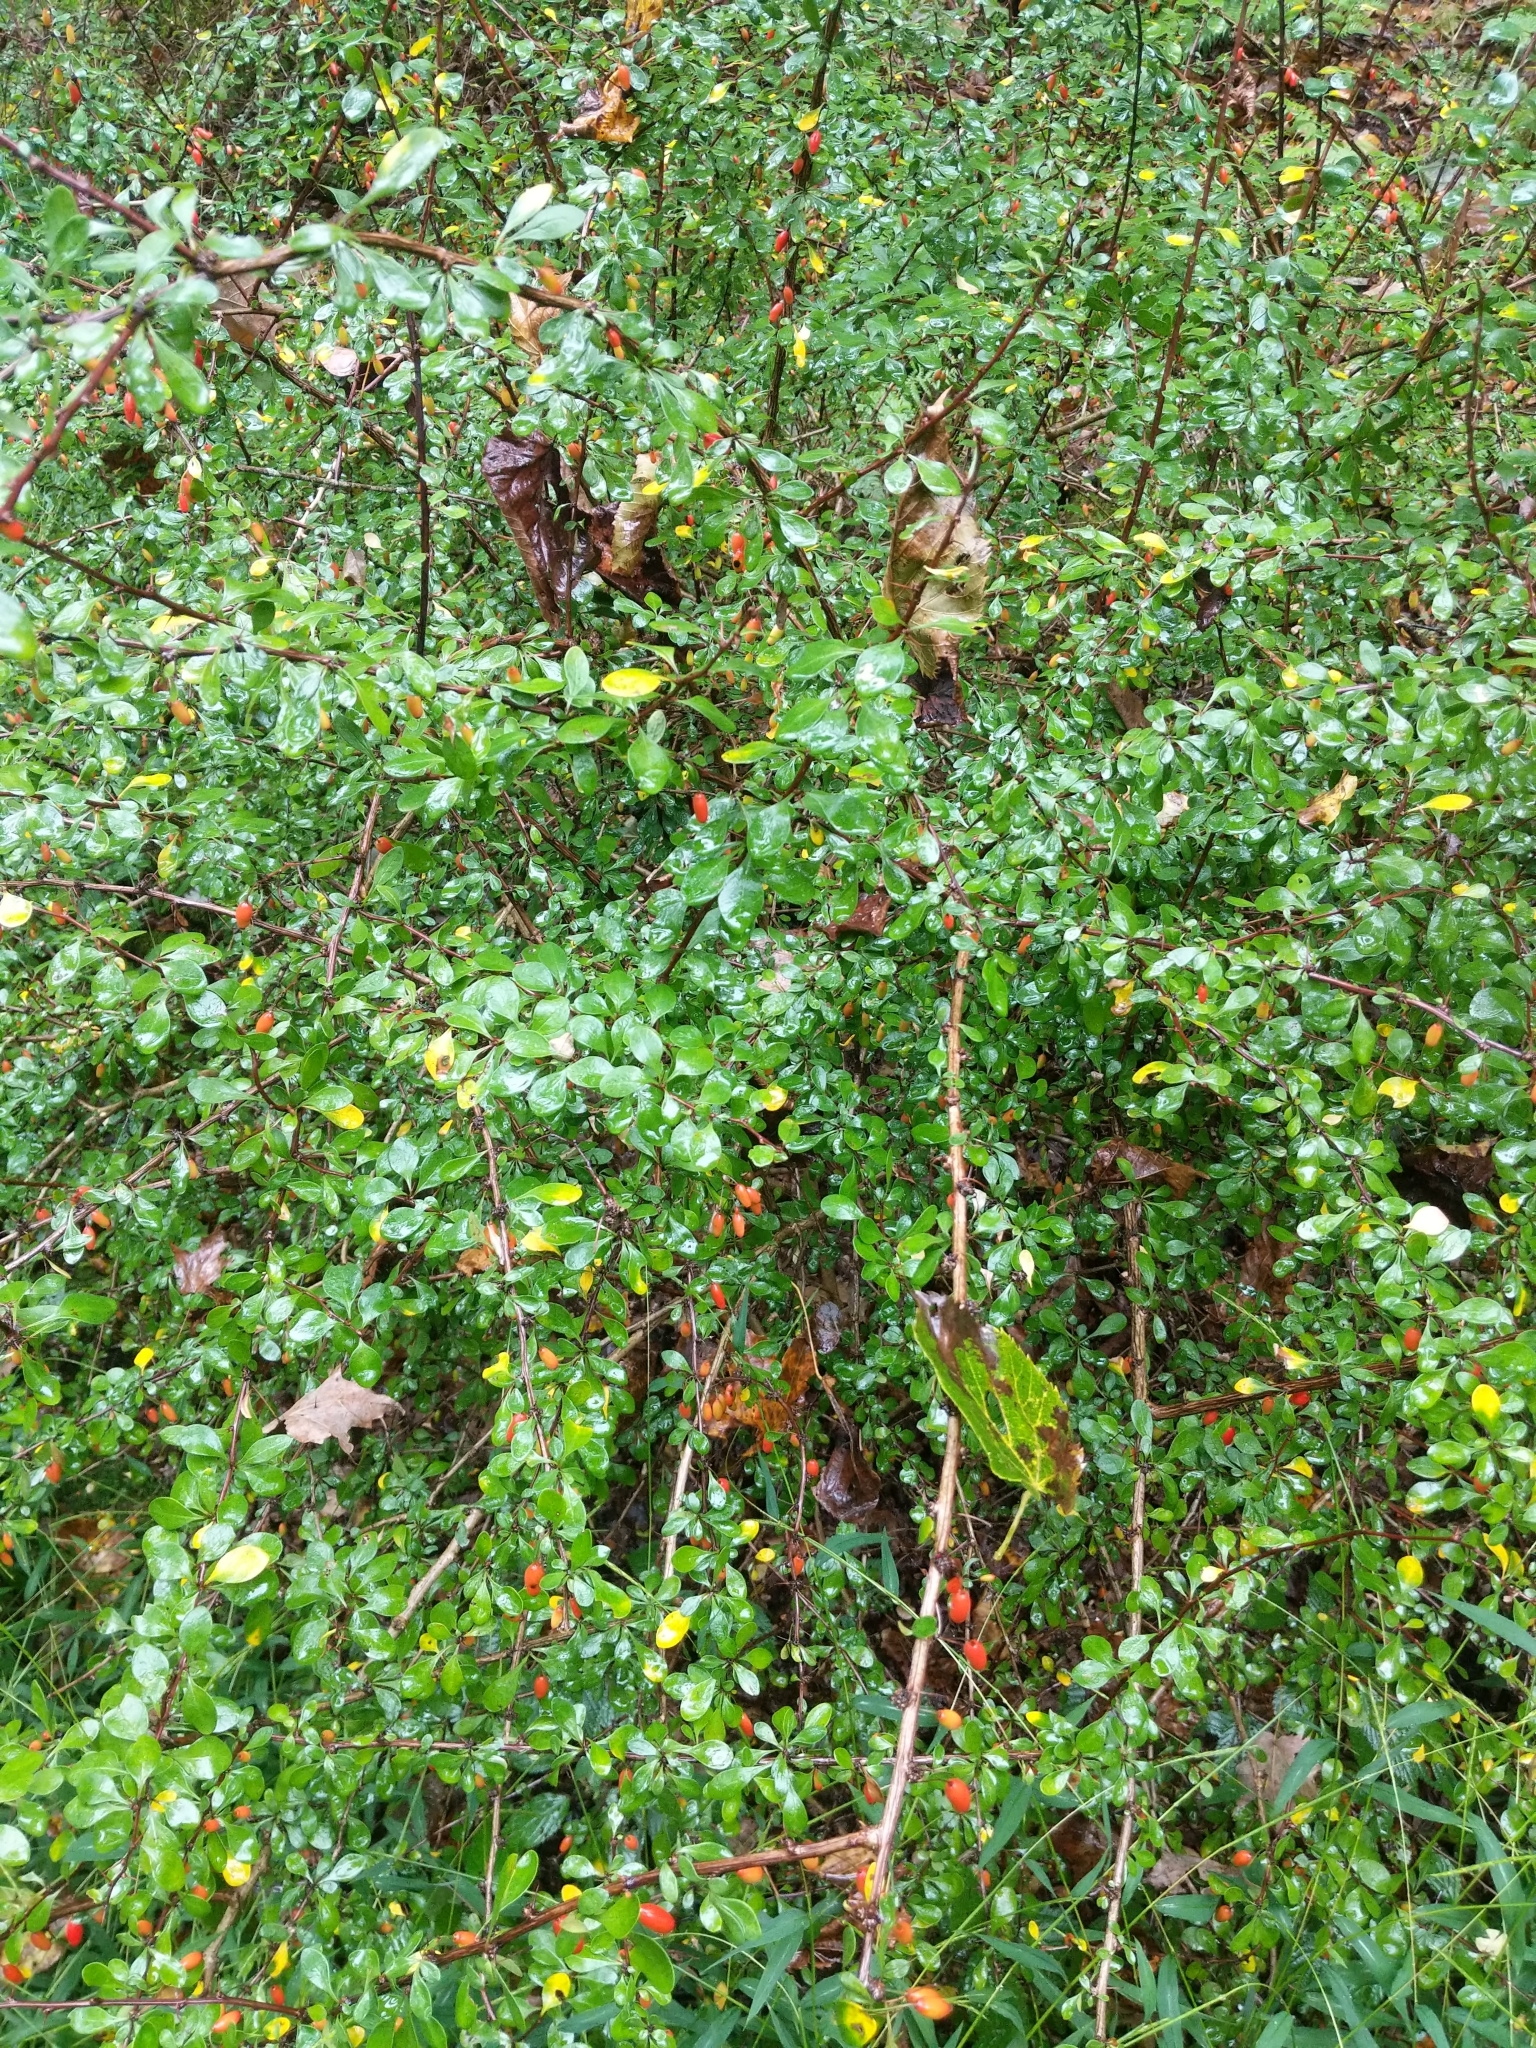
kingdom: Plantae
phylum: Tracheophyta
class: Magnoliopsida
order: Ranunculales
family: Berberidaceae
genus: Berberis
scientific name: Berberis thunbergii
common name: Japanese barberry
